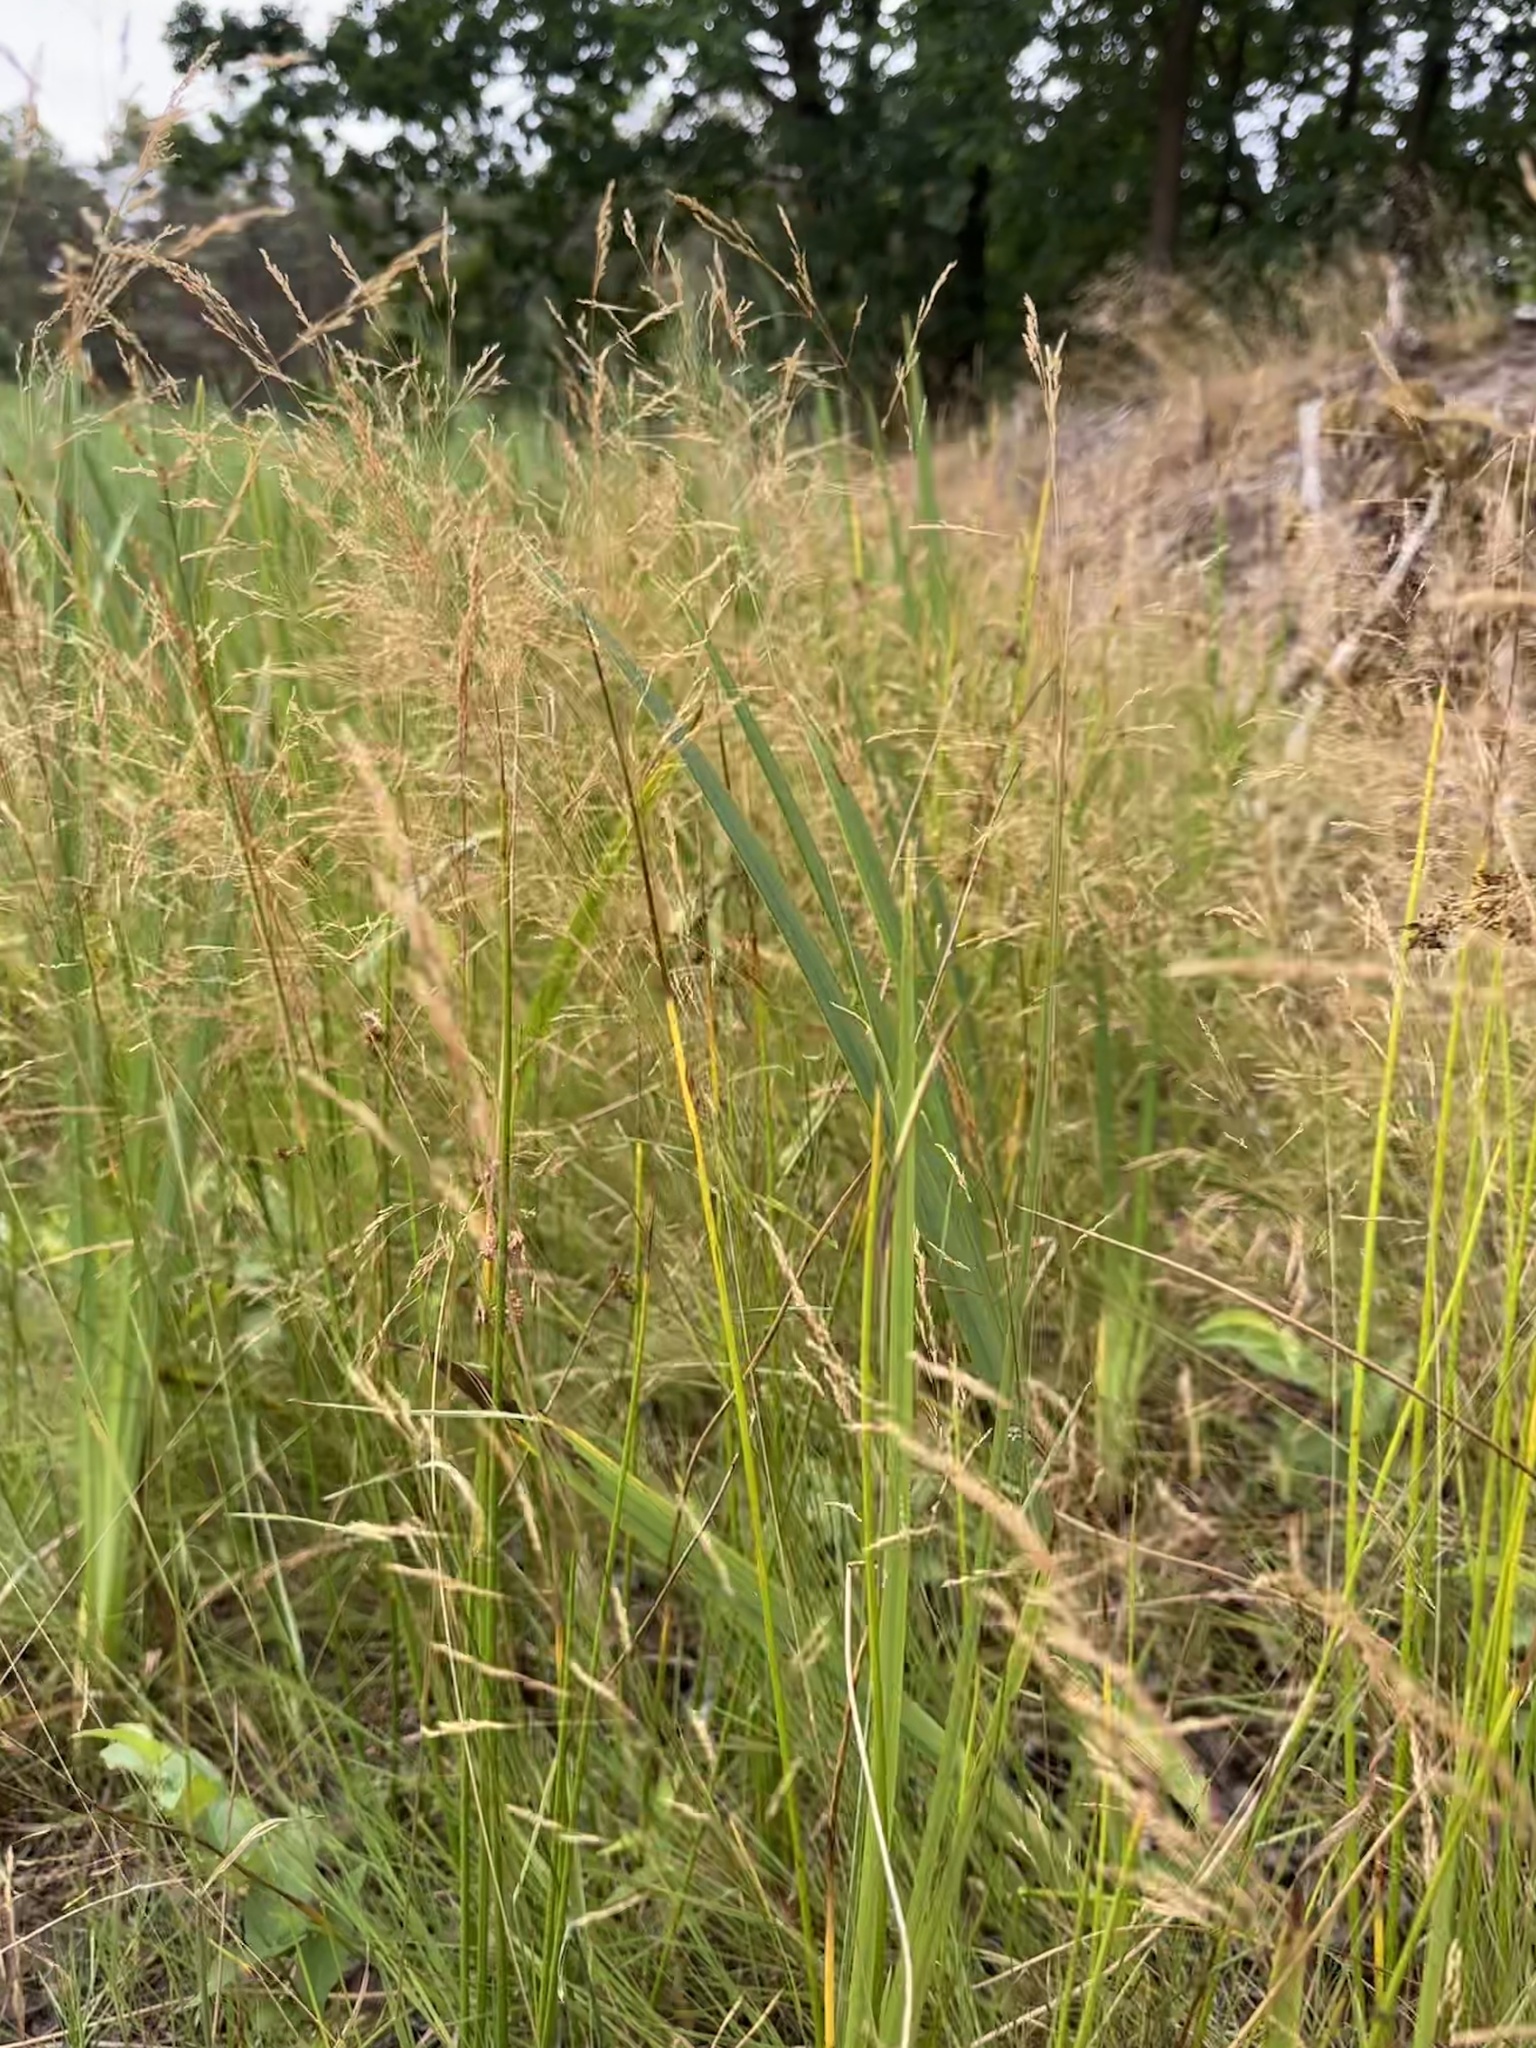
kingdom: Plantae
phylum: Tracheophyta
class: Liliopsida
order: Poales
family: Poaceae
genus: Agrostis
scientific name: Agrostis gigantea
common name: Black bent
